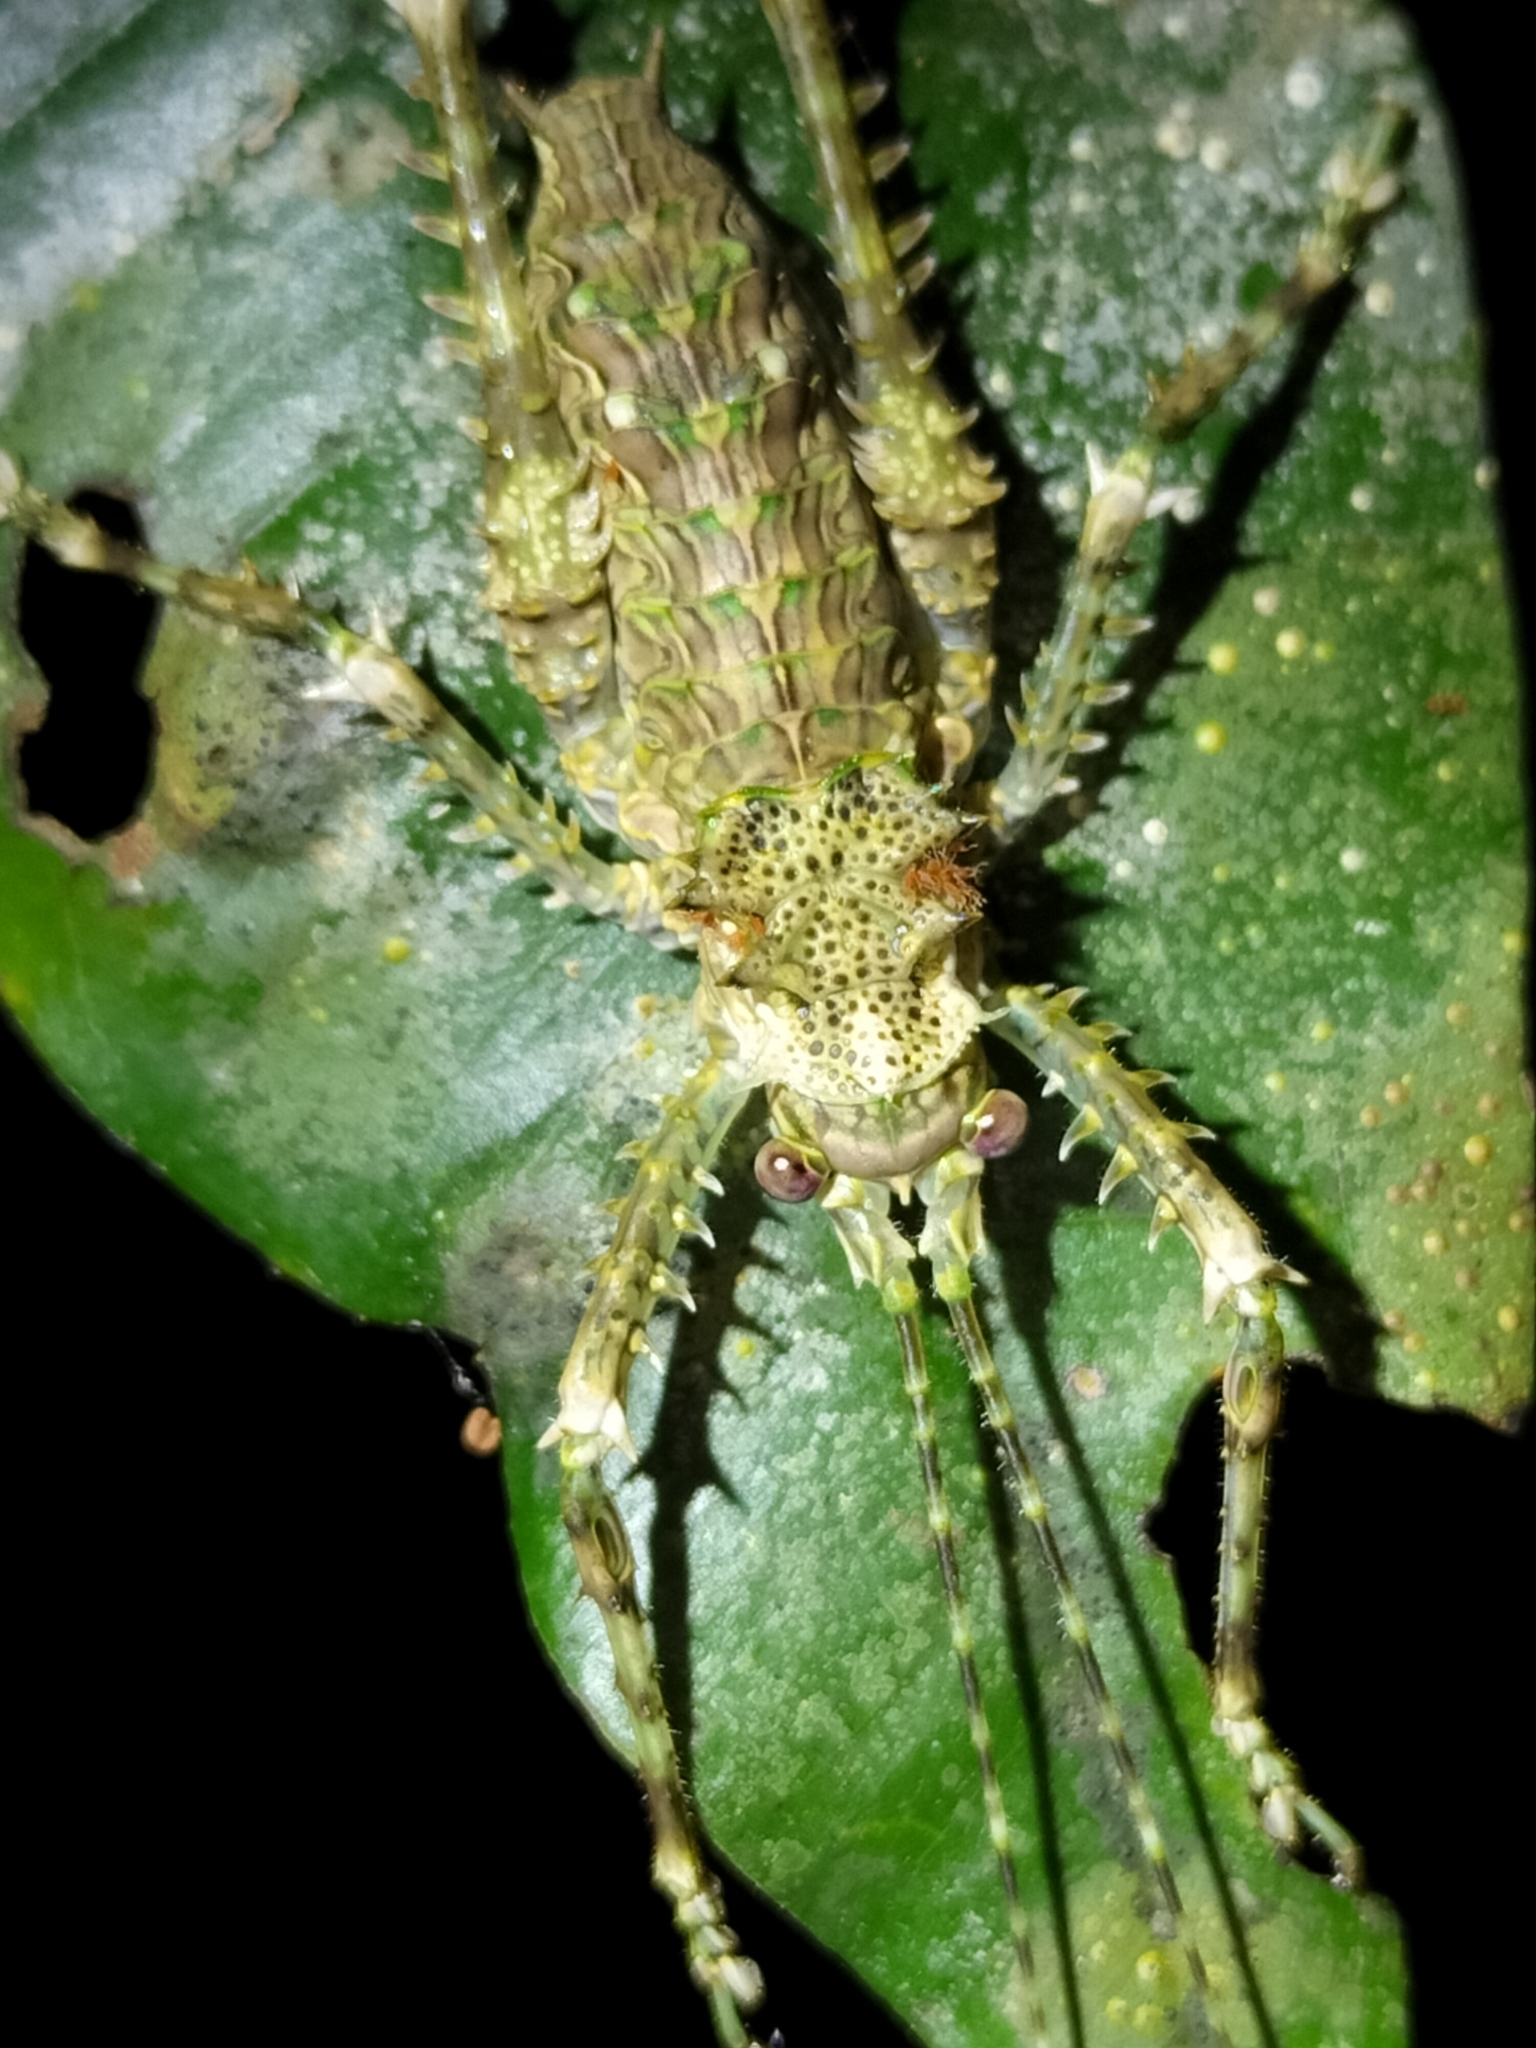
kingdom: Animalia
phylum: Arthropoda
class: Insecta
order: Orthoptera
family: Tettigoniidae
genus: Phricta
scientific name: Phricta spinosa
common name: Giant spiny forest katydid
